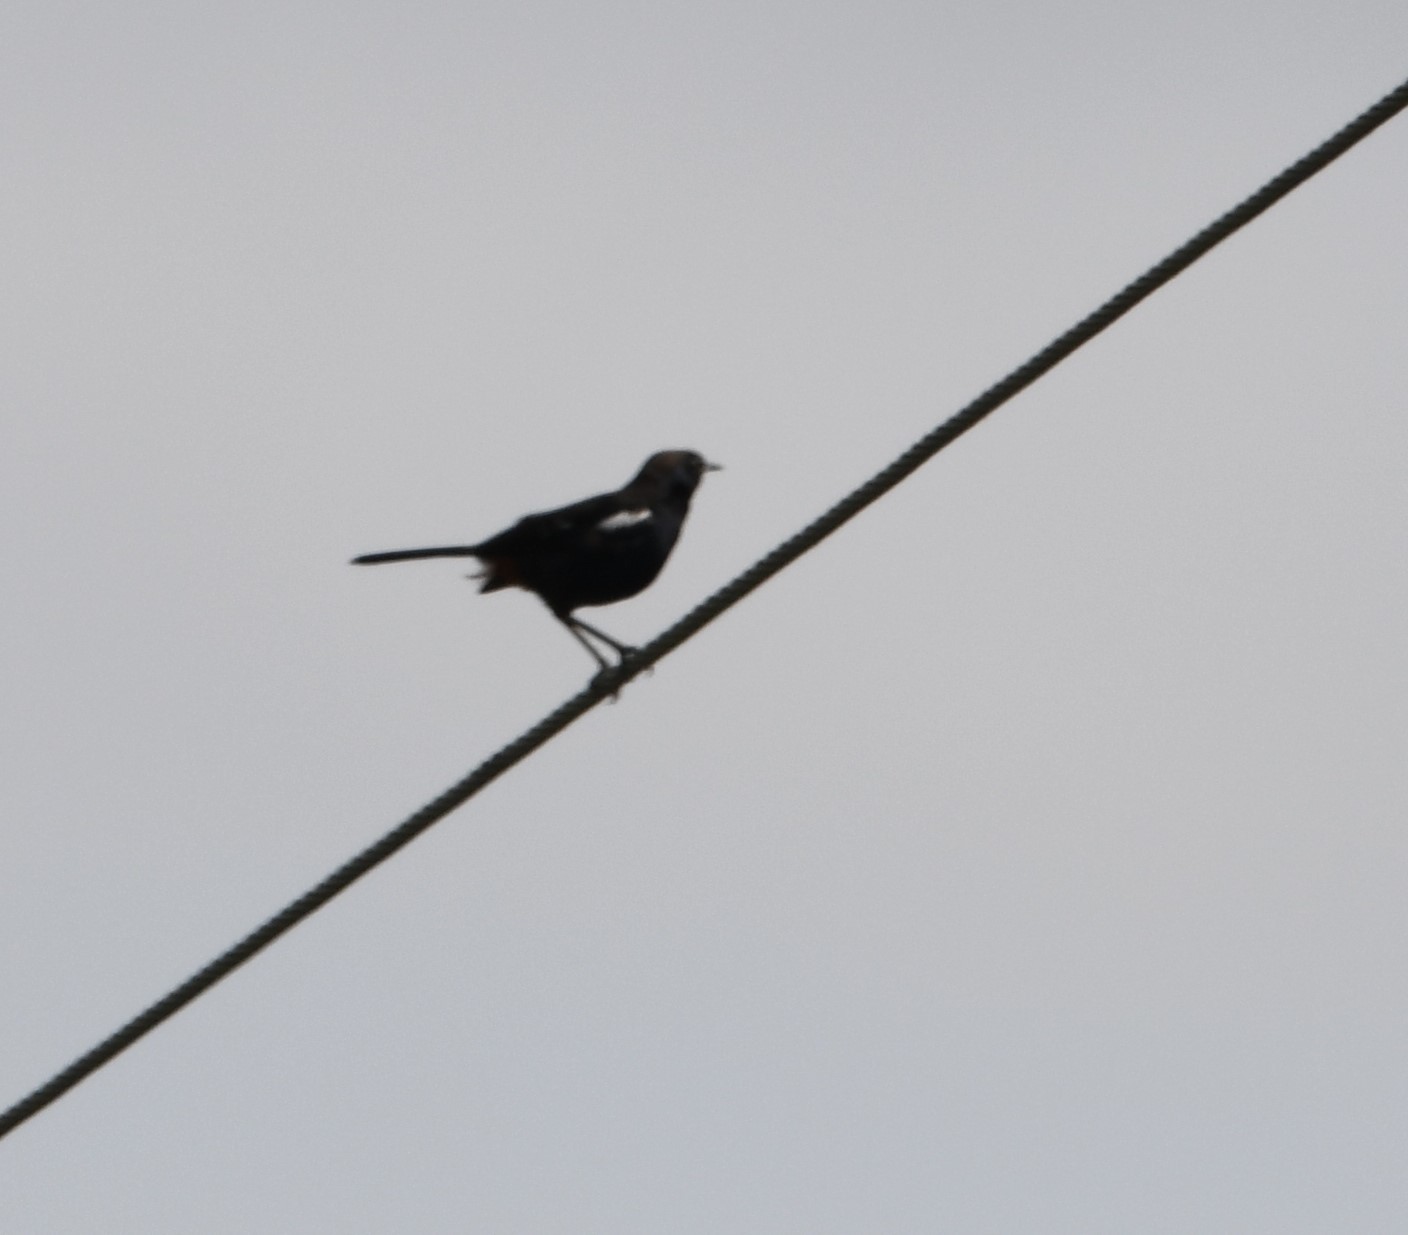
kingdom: Animalia
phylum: Chordata
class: Aves
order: Passeriformes
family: Muscicapidae
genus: Saxicoloides
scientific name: Saxicoloides fulicatus
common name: Indian robin
